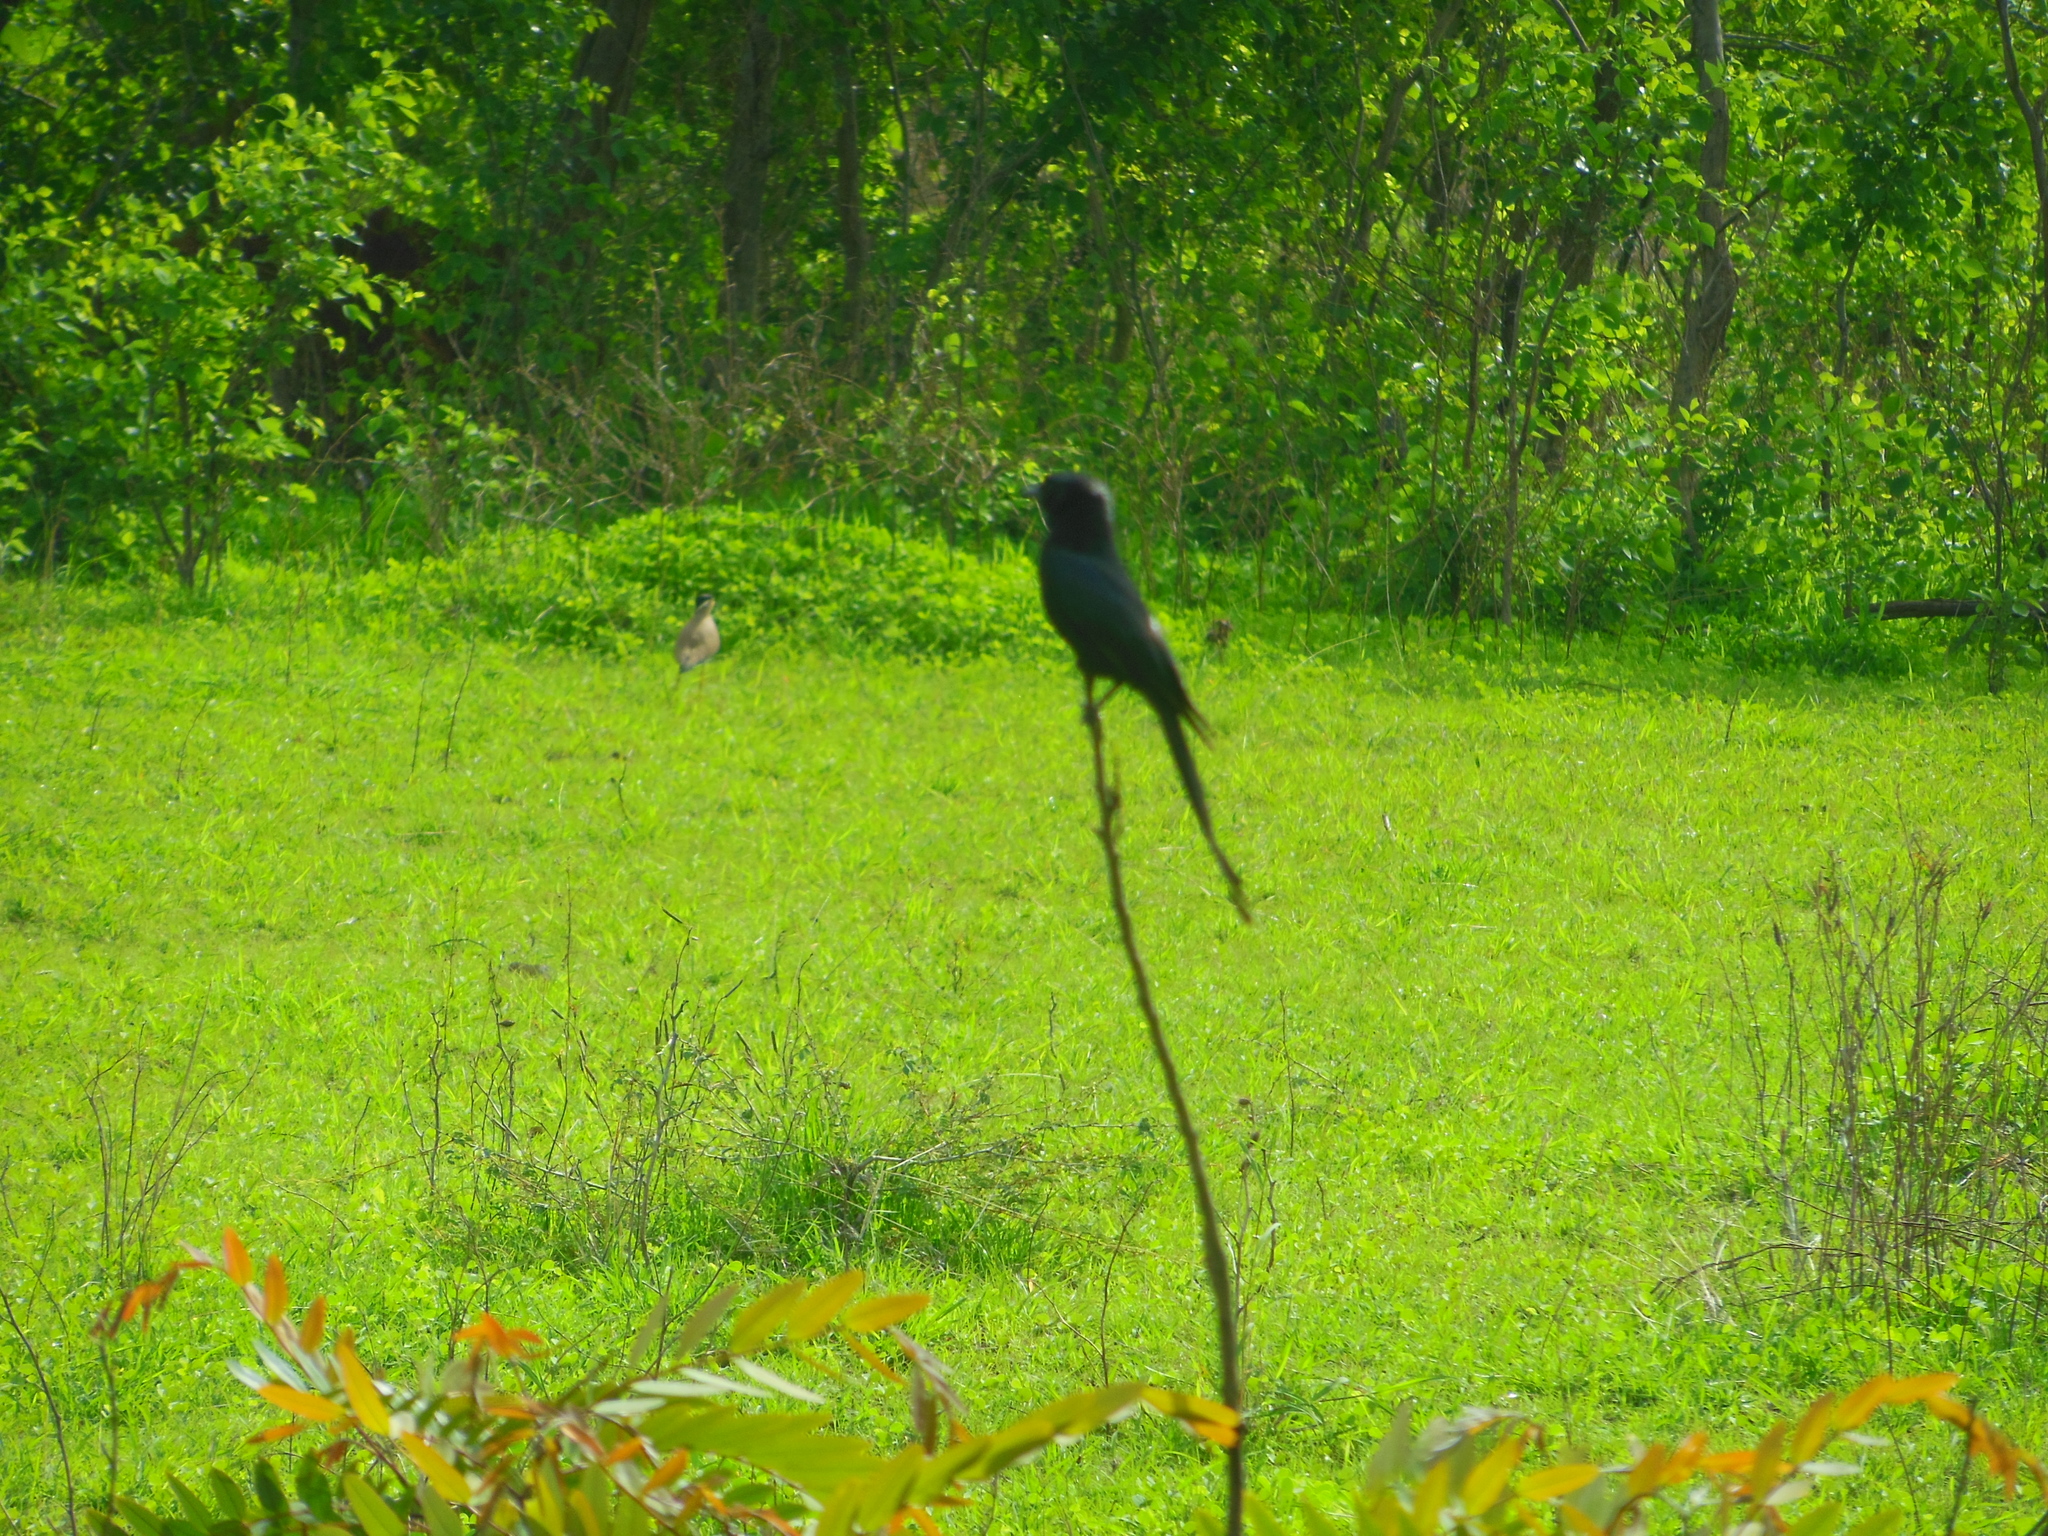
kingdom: Animalia
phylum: Chordata
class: Aves
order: Passeriformes
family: Dicruridae
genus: Dicrurus
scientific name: Dicrurus macrocercus
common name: Black drongo
